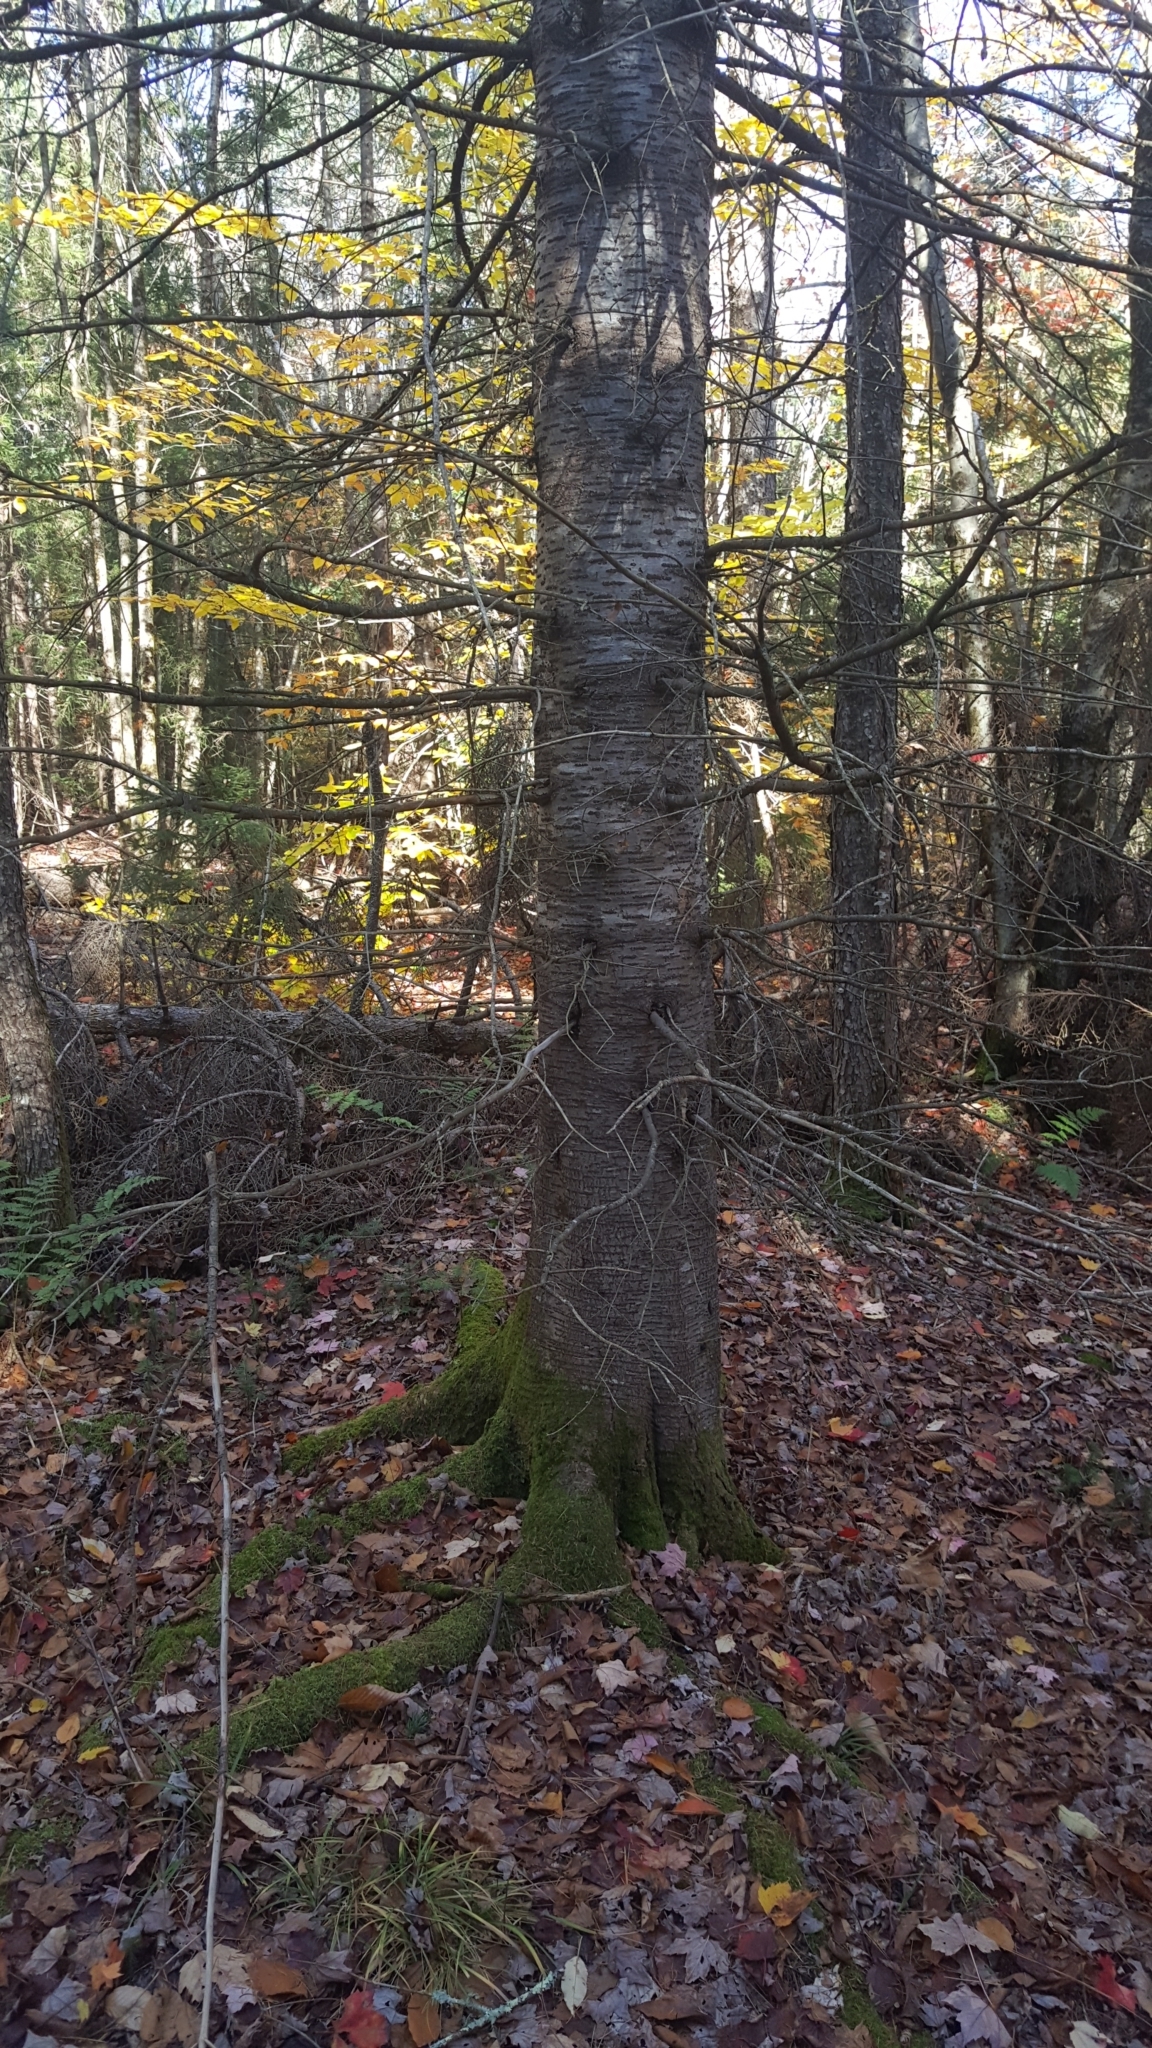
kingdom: Plantae
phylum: Tracheophyta
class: Pinopsida
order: Pinales
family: Pinaceae
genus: Abies
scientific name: Abies balsamea
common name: Balsam fir
